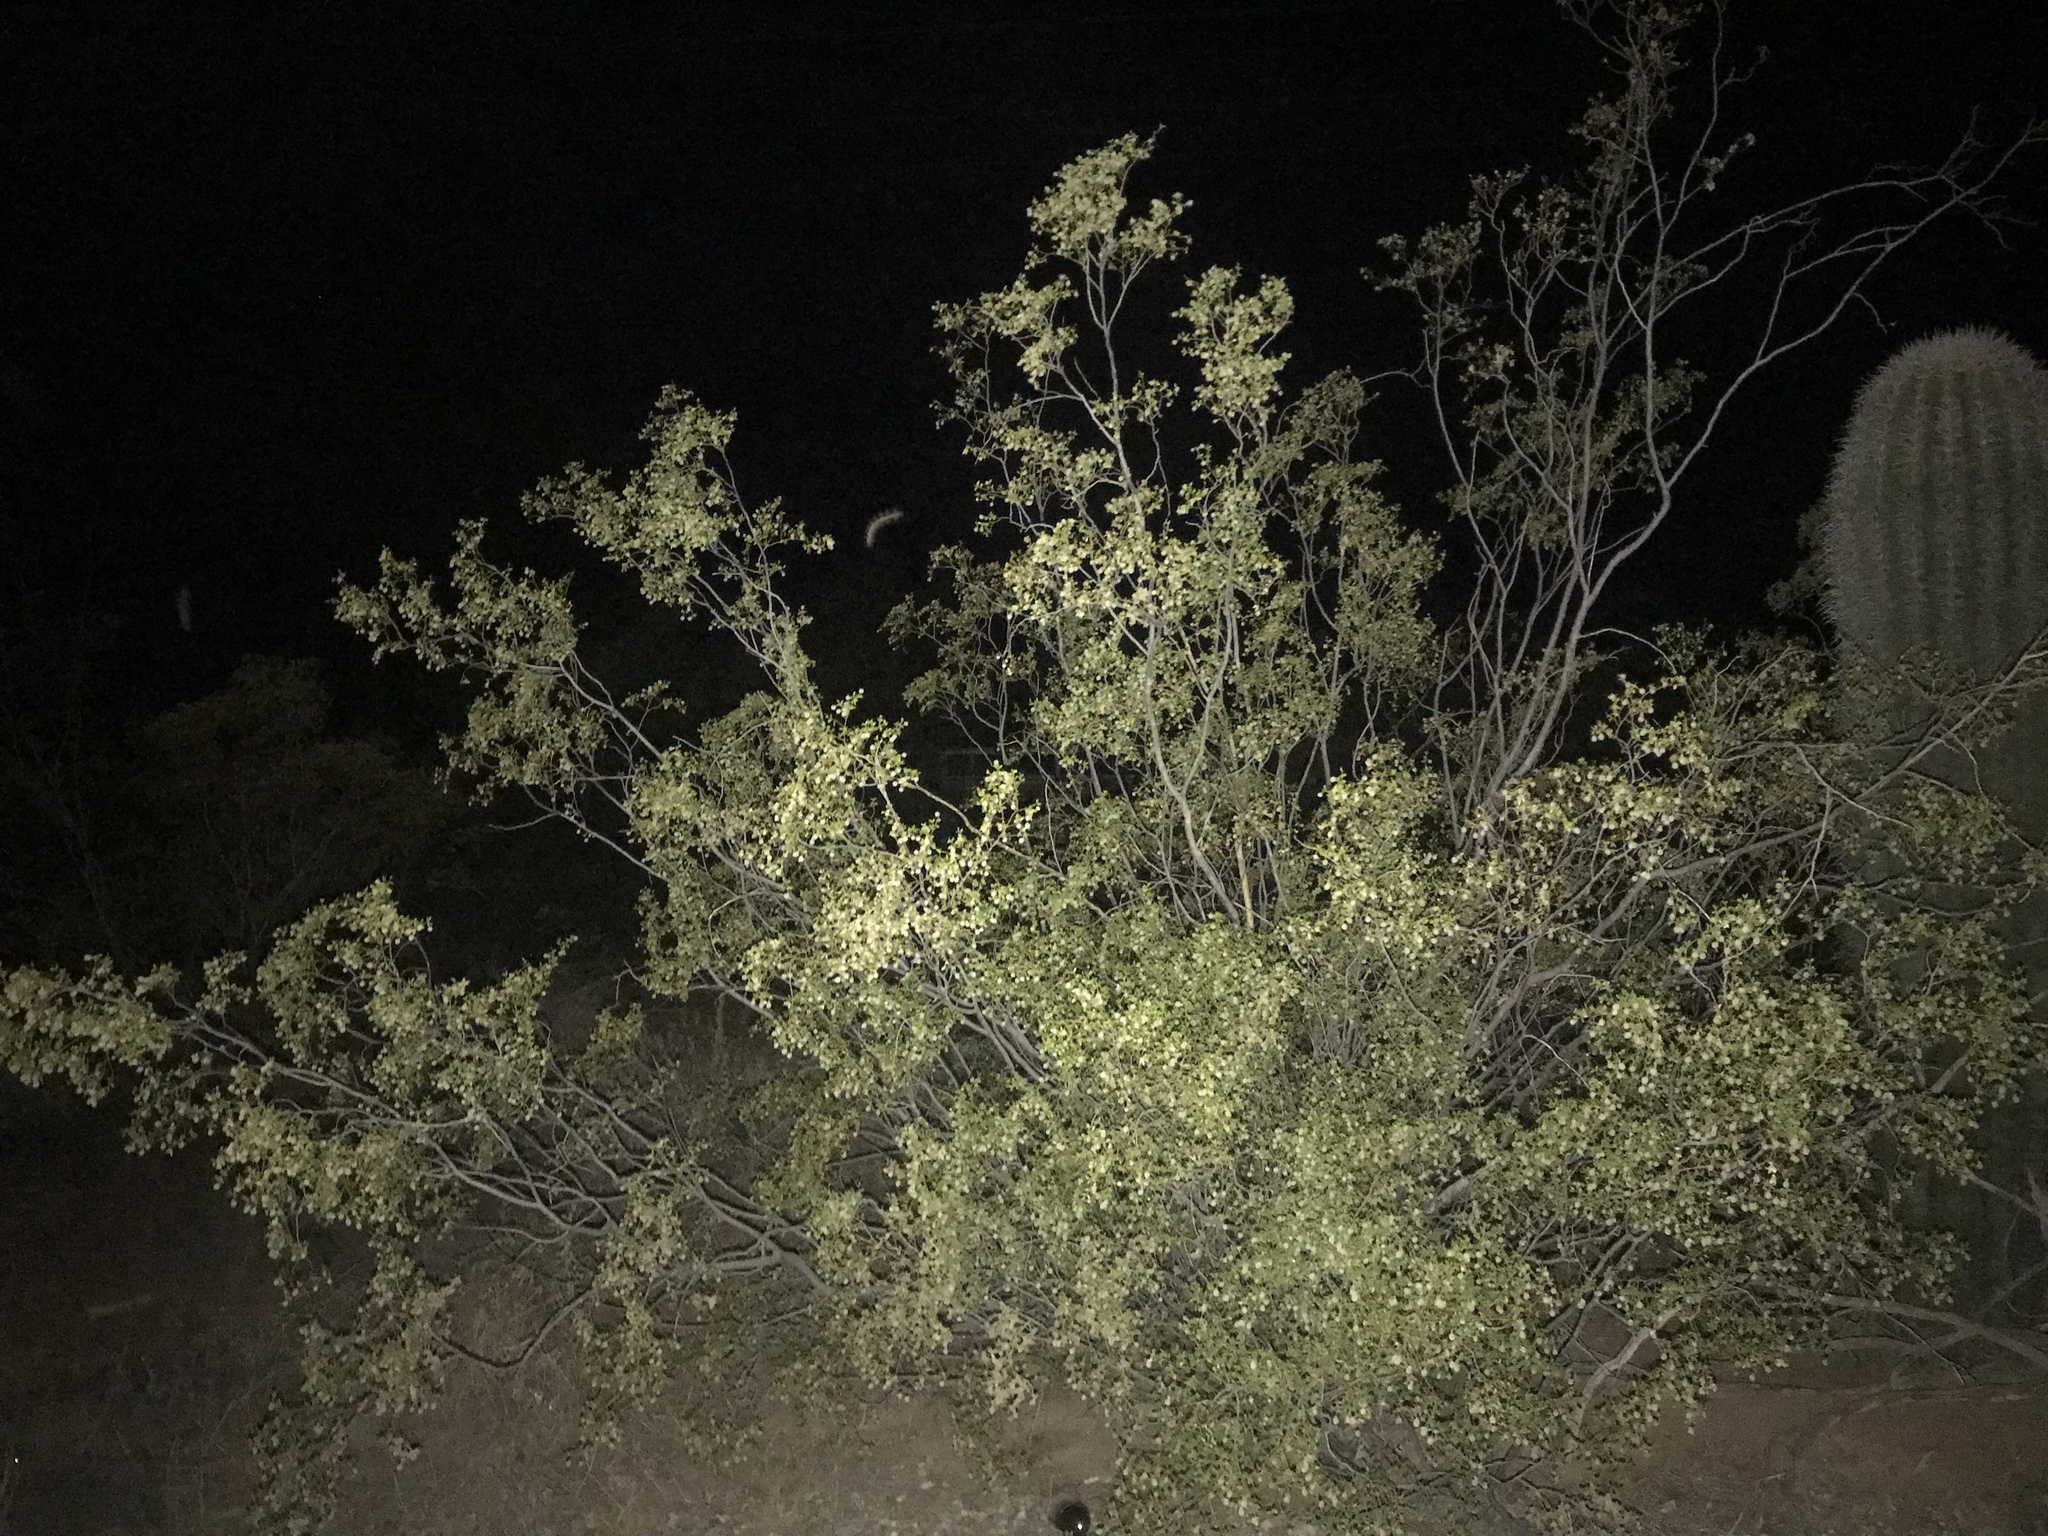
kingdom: Plantae
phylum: Tracheophyta
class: Magnoliopsida
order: Zygophyllales
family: Zygophyllaceae
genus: Larrea
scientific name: Larrea tridentata
